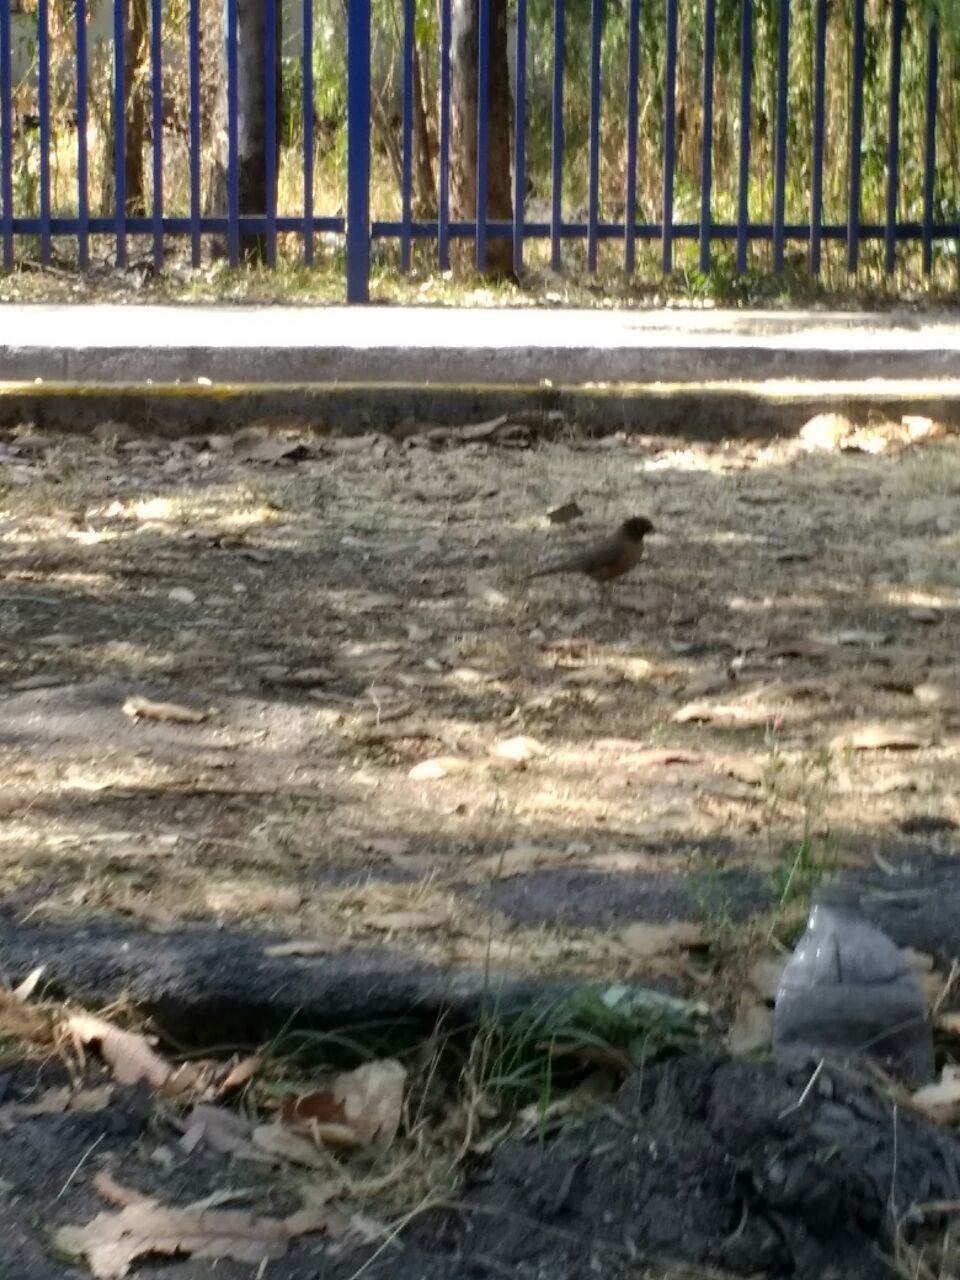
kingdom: Animalia
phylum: Chordata
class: Aves
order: Passeriformes
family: Turdidae
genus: Turdus
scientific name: Turdus migratorius
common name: American robin
